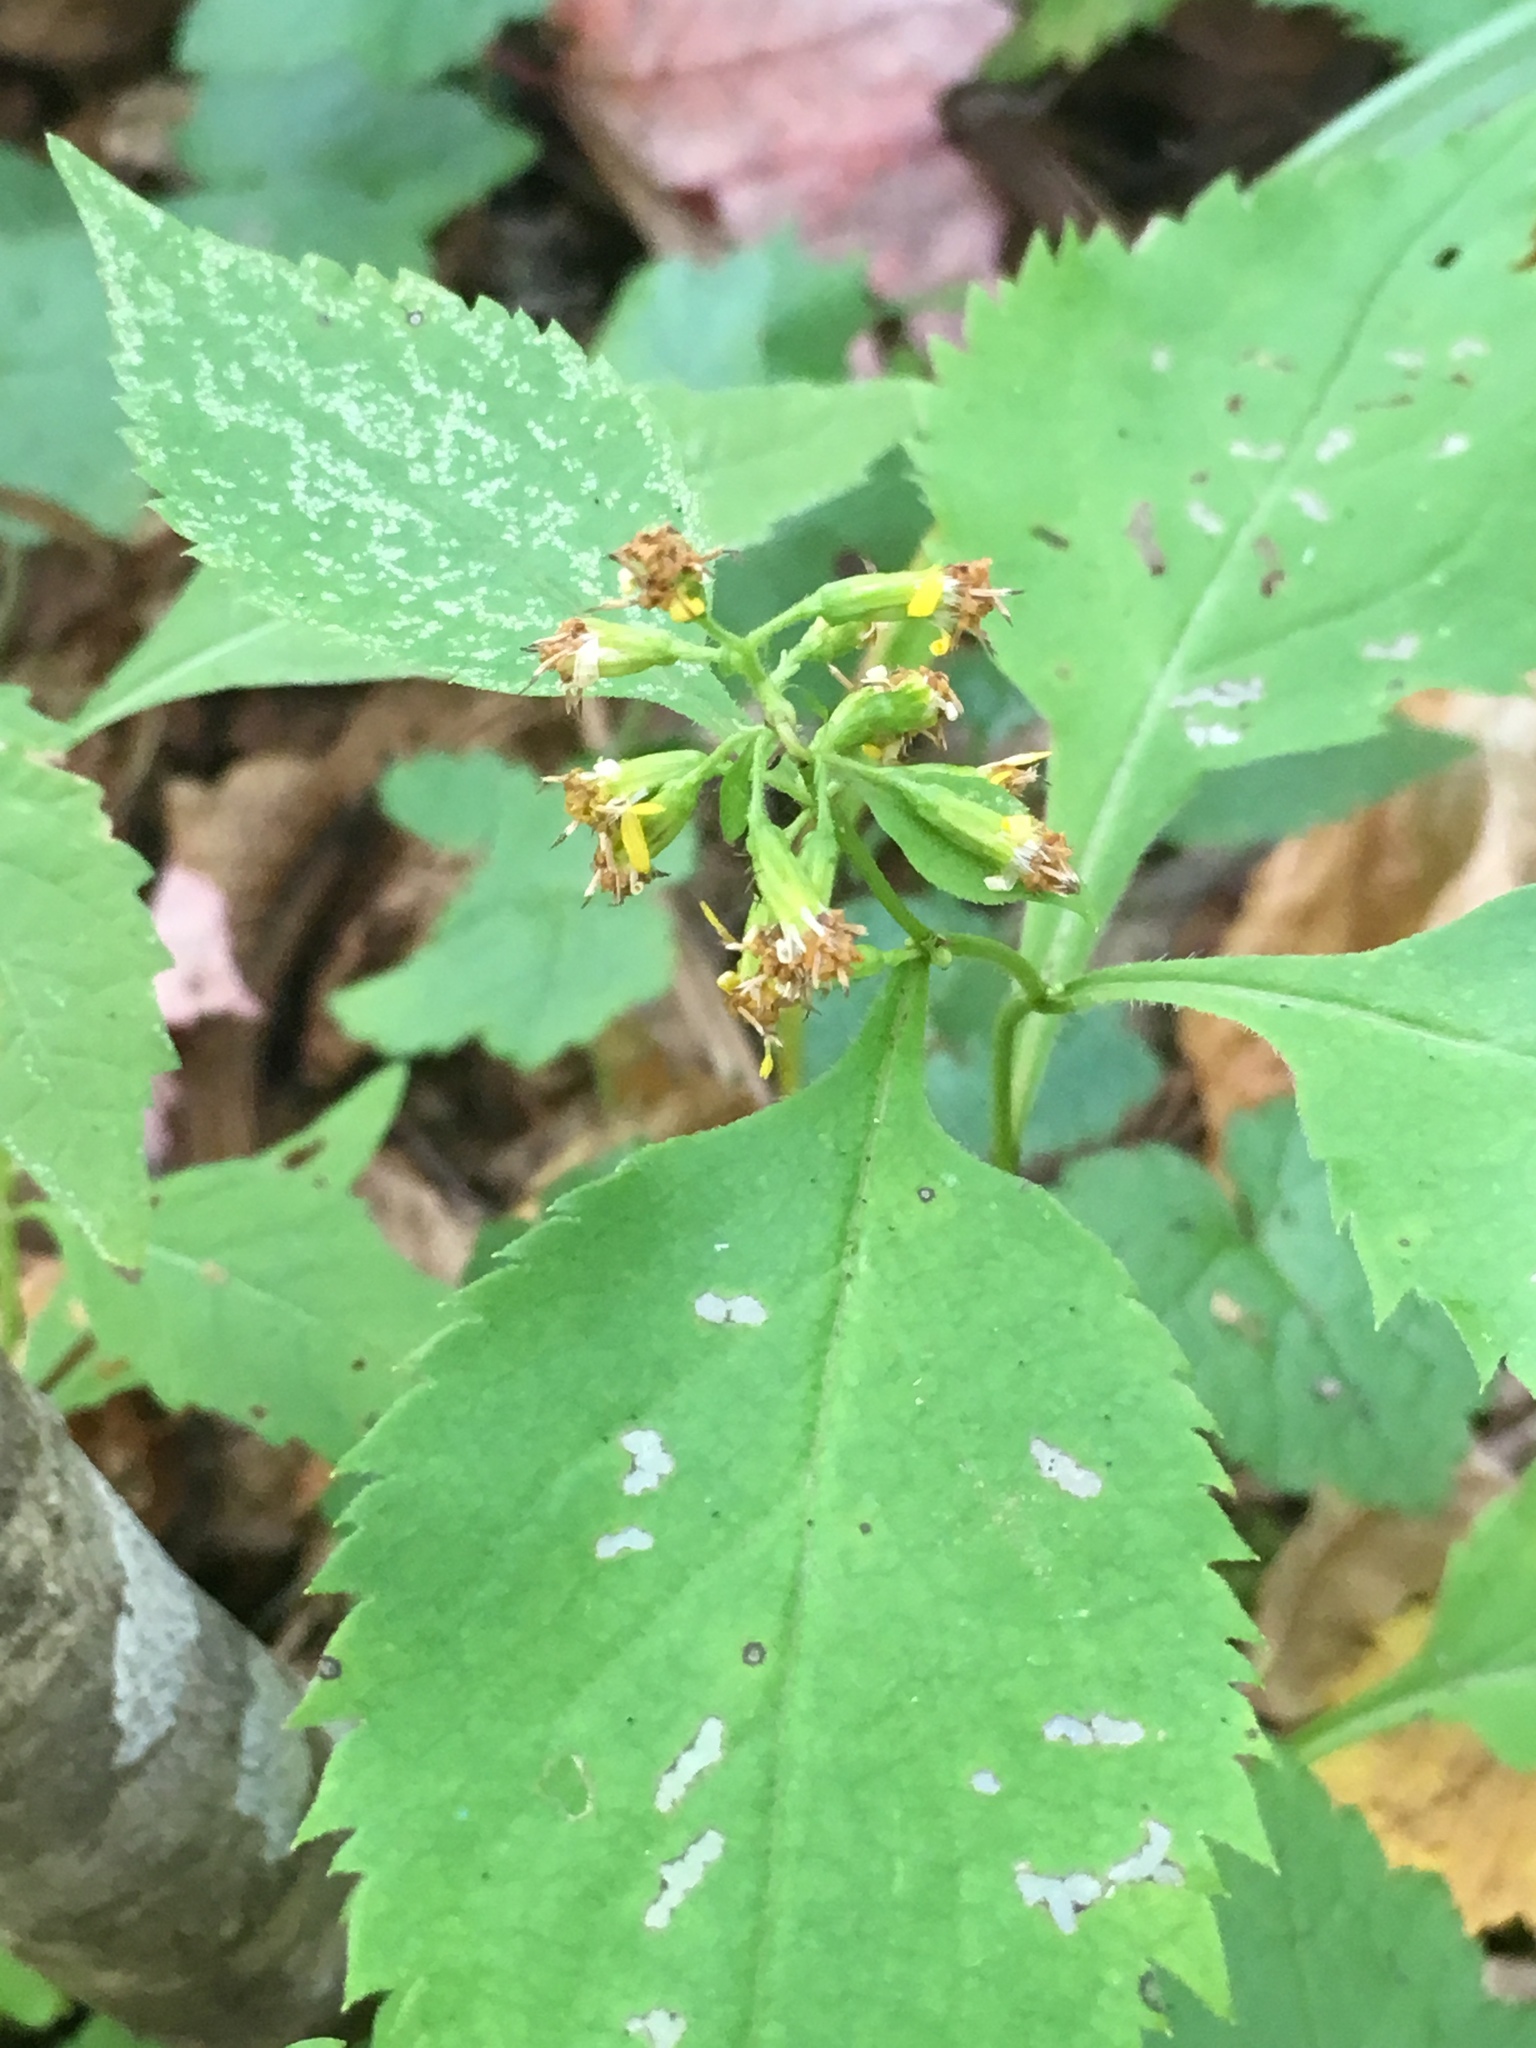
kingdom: Plantae
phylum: Tracheophyta
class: Magnoliopsida
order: Asterales
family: Asteraceae
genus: Solidago
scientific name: Solidago flexicaulis
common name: Zig-zag goldenrod
